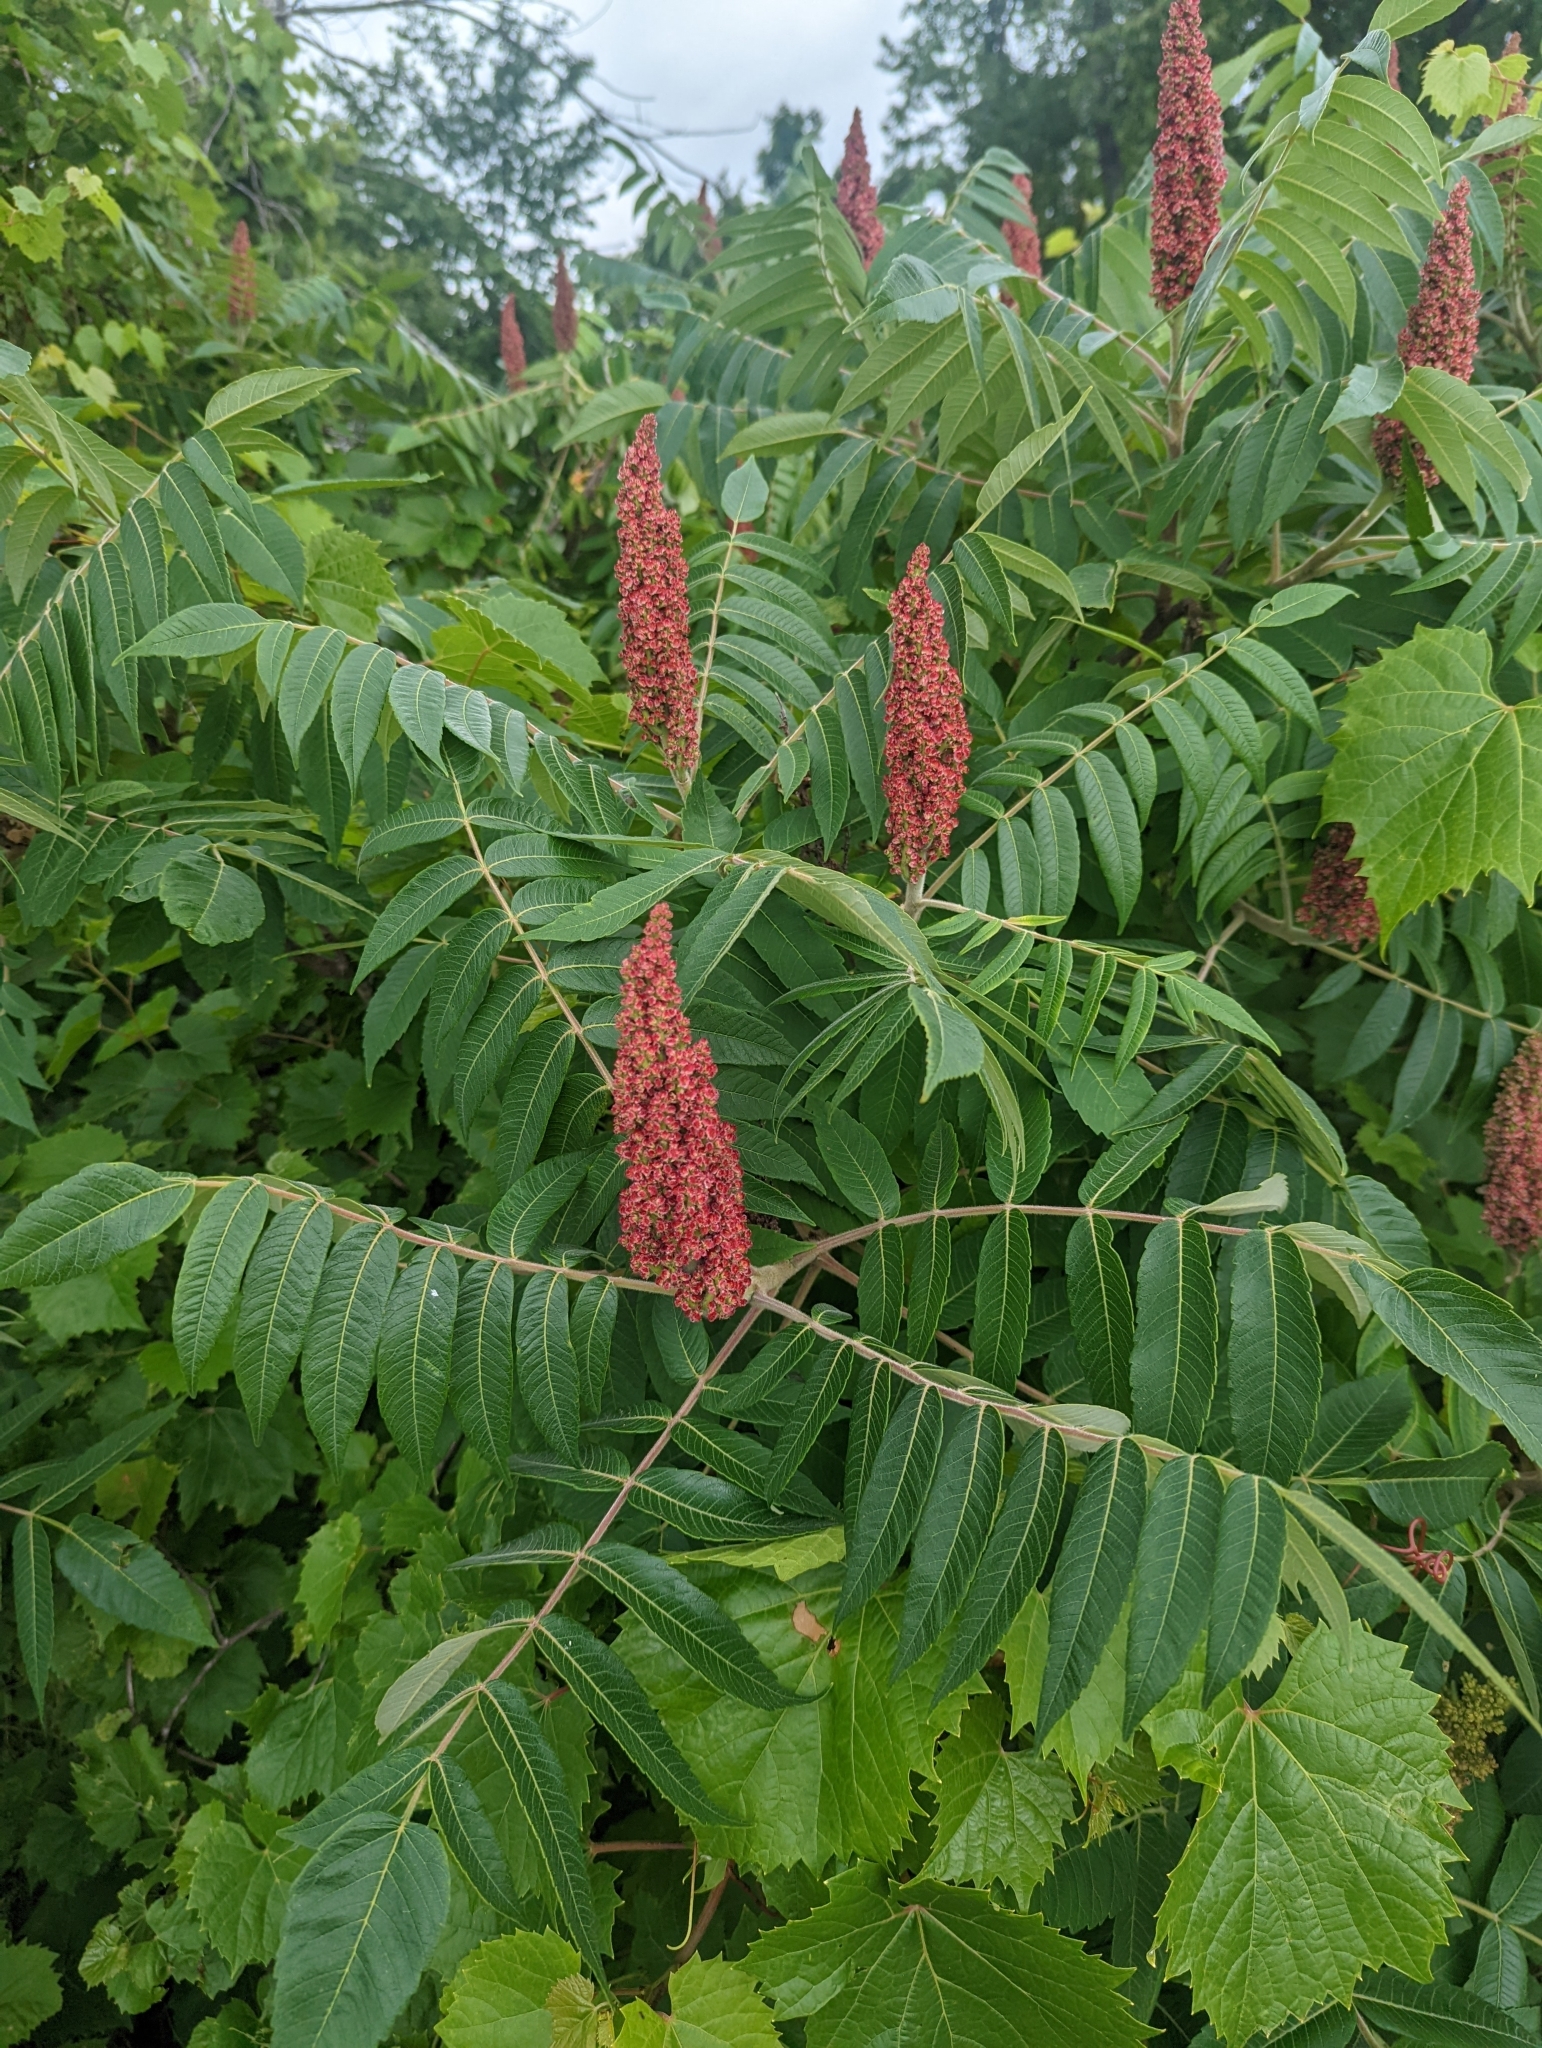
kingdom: Plantae
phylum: Tracheophyta
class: Magnoliopsida
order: Sapindales
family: Anacardiaceae
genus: Rhus
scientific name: Rhus typhina
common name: Staghorn sumac
